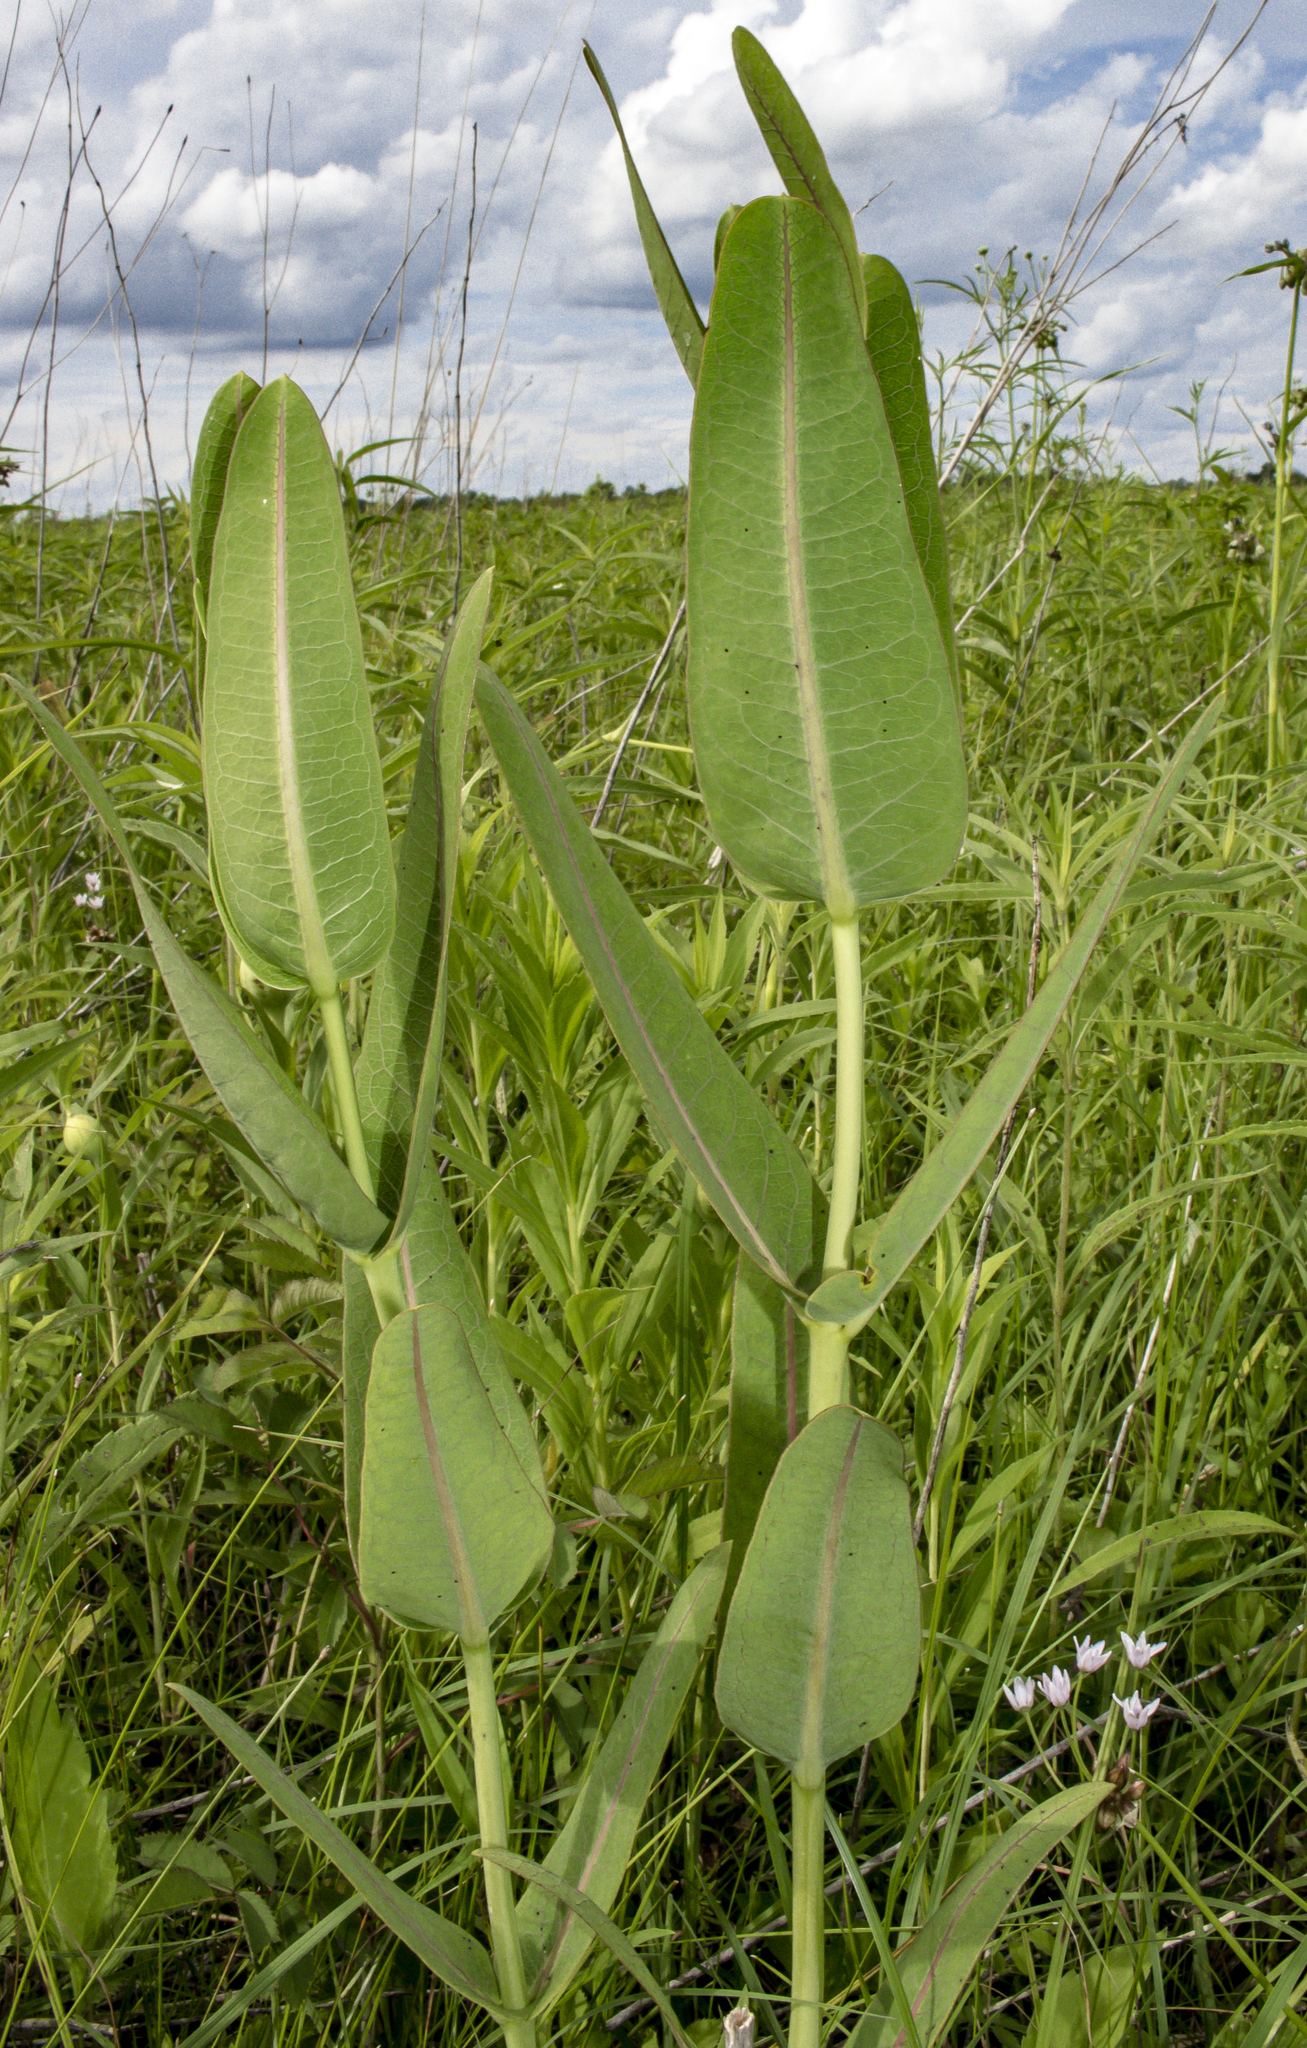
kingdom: Plantae
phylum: Tracheophyta
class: Magnoliopsida
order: Gentianales
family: Apocynaceae
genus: Asclepias
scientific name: Asclepias sullivantii
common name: Prairie milkweed
